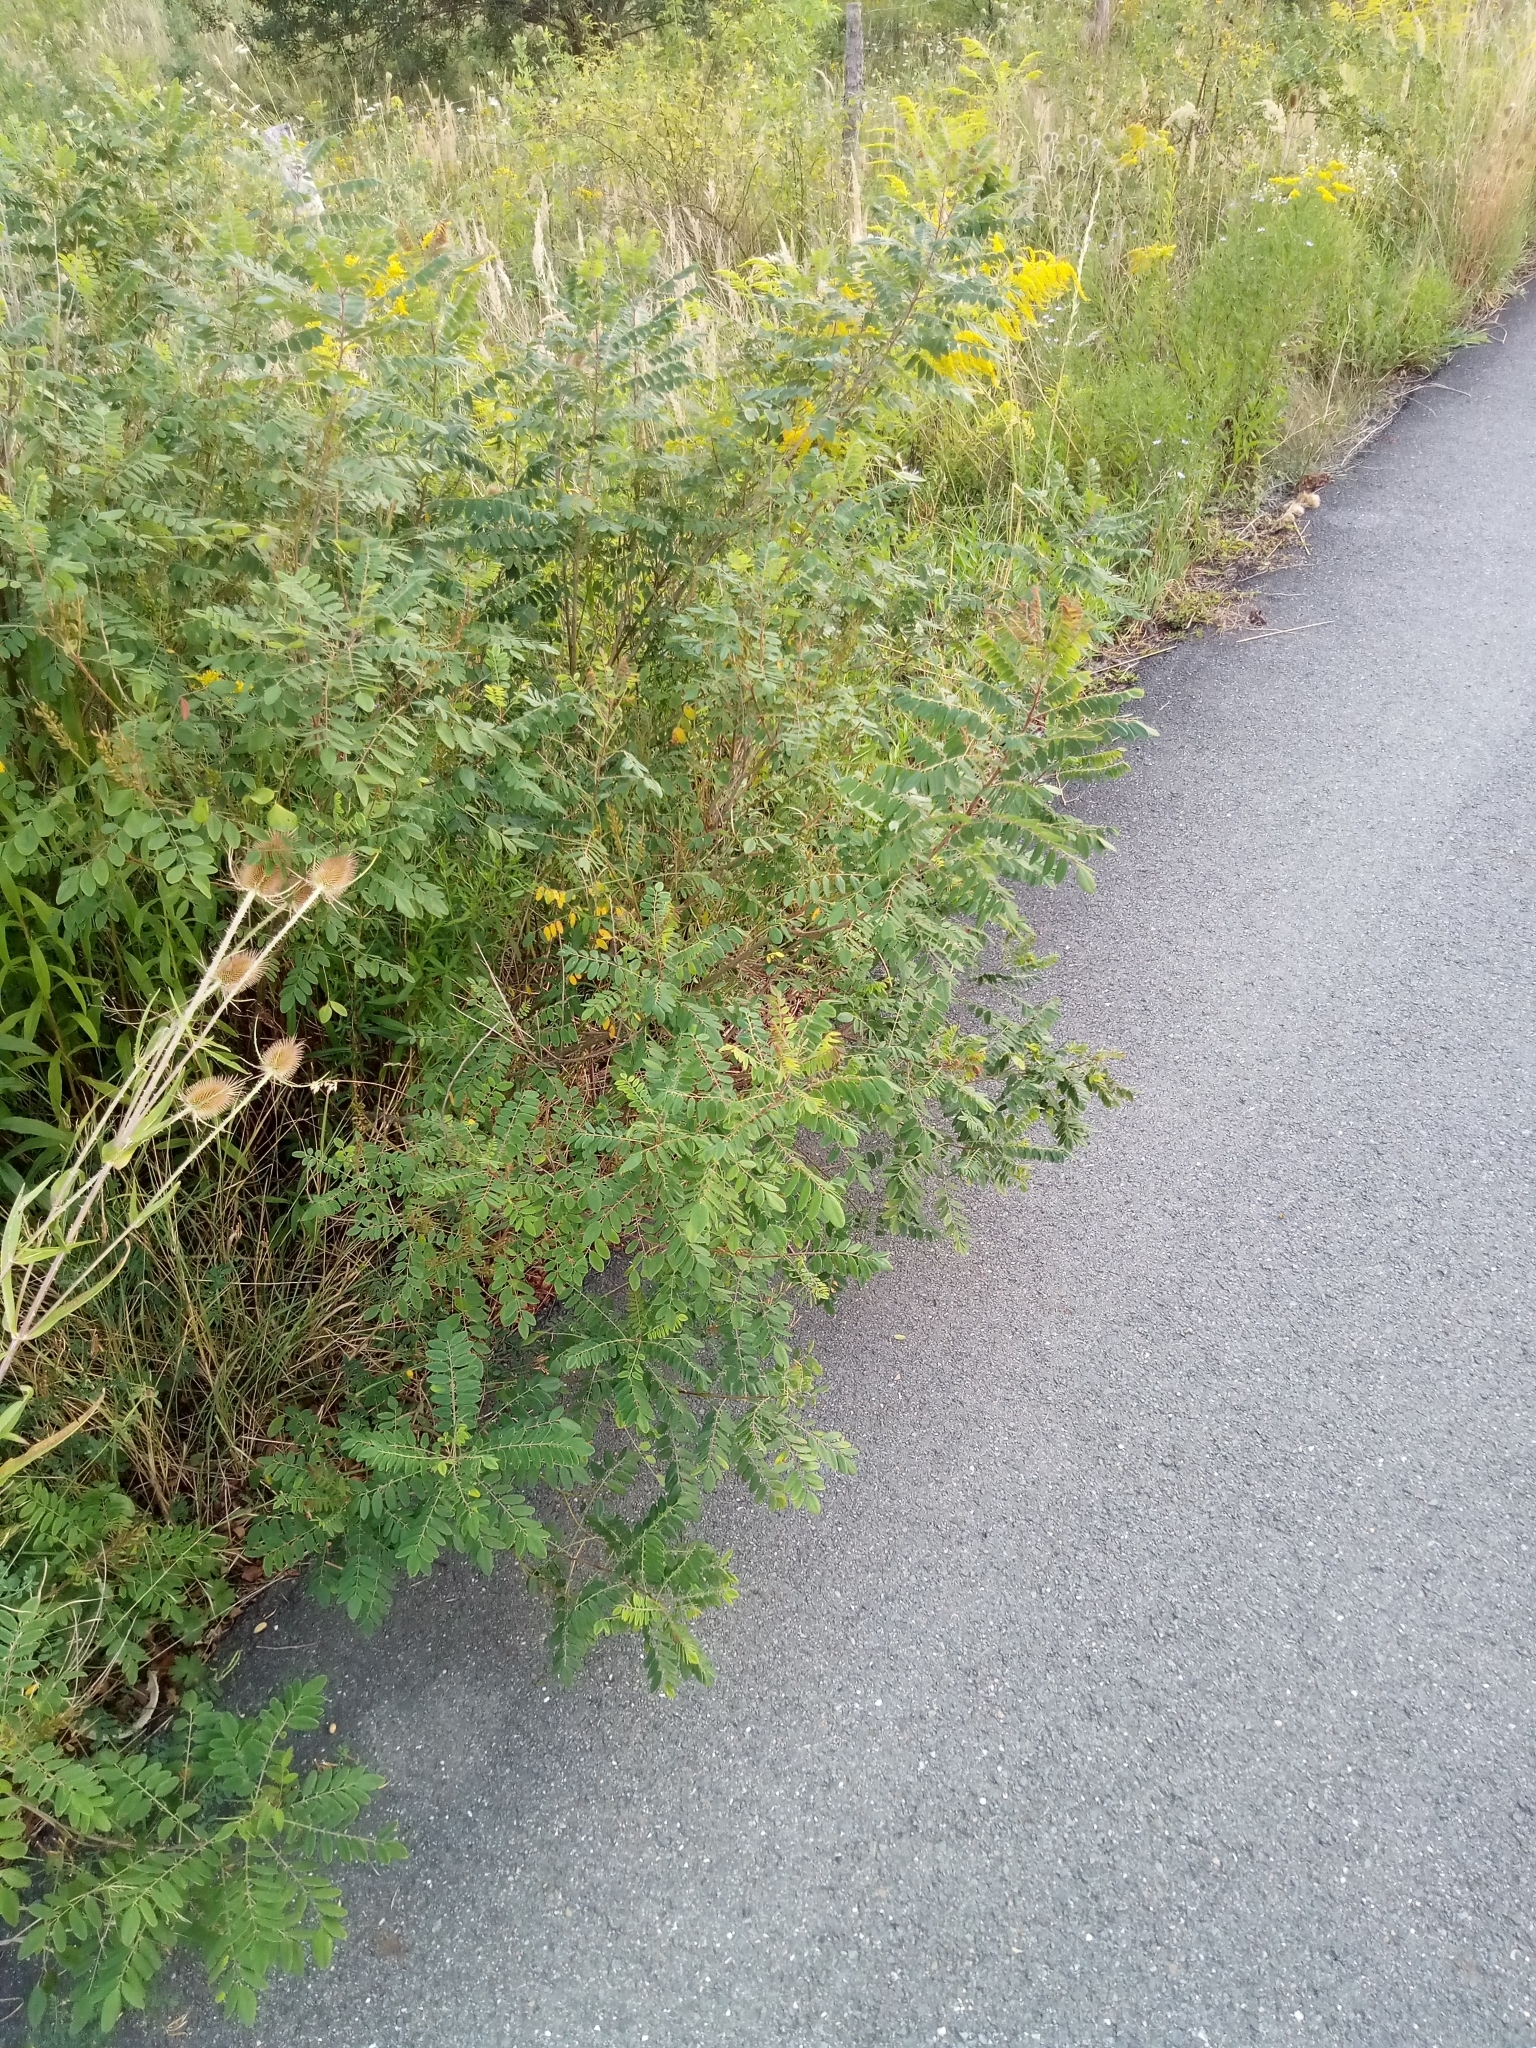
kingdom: Plantae
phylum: Tracheophyta
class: Magnoliopsida
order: Fabales
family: Fabaceae
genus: Amorpha
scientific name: Amorpha fruticosa
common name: False indigo
